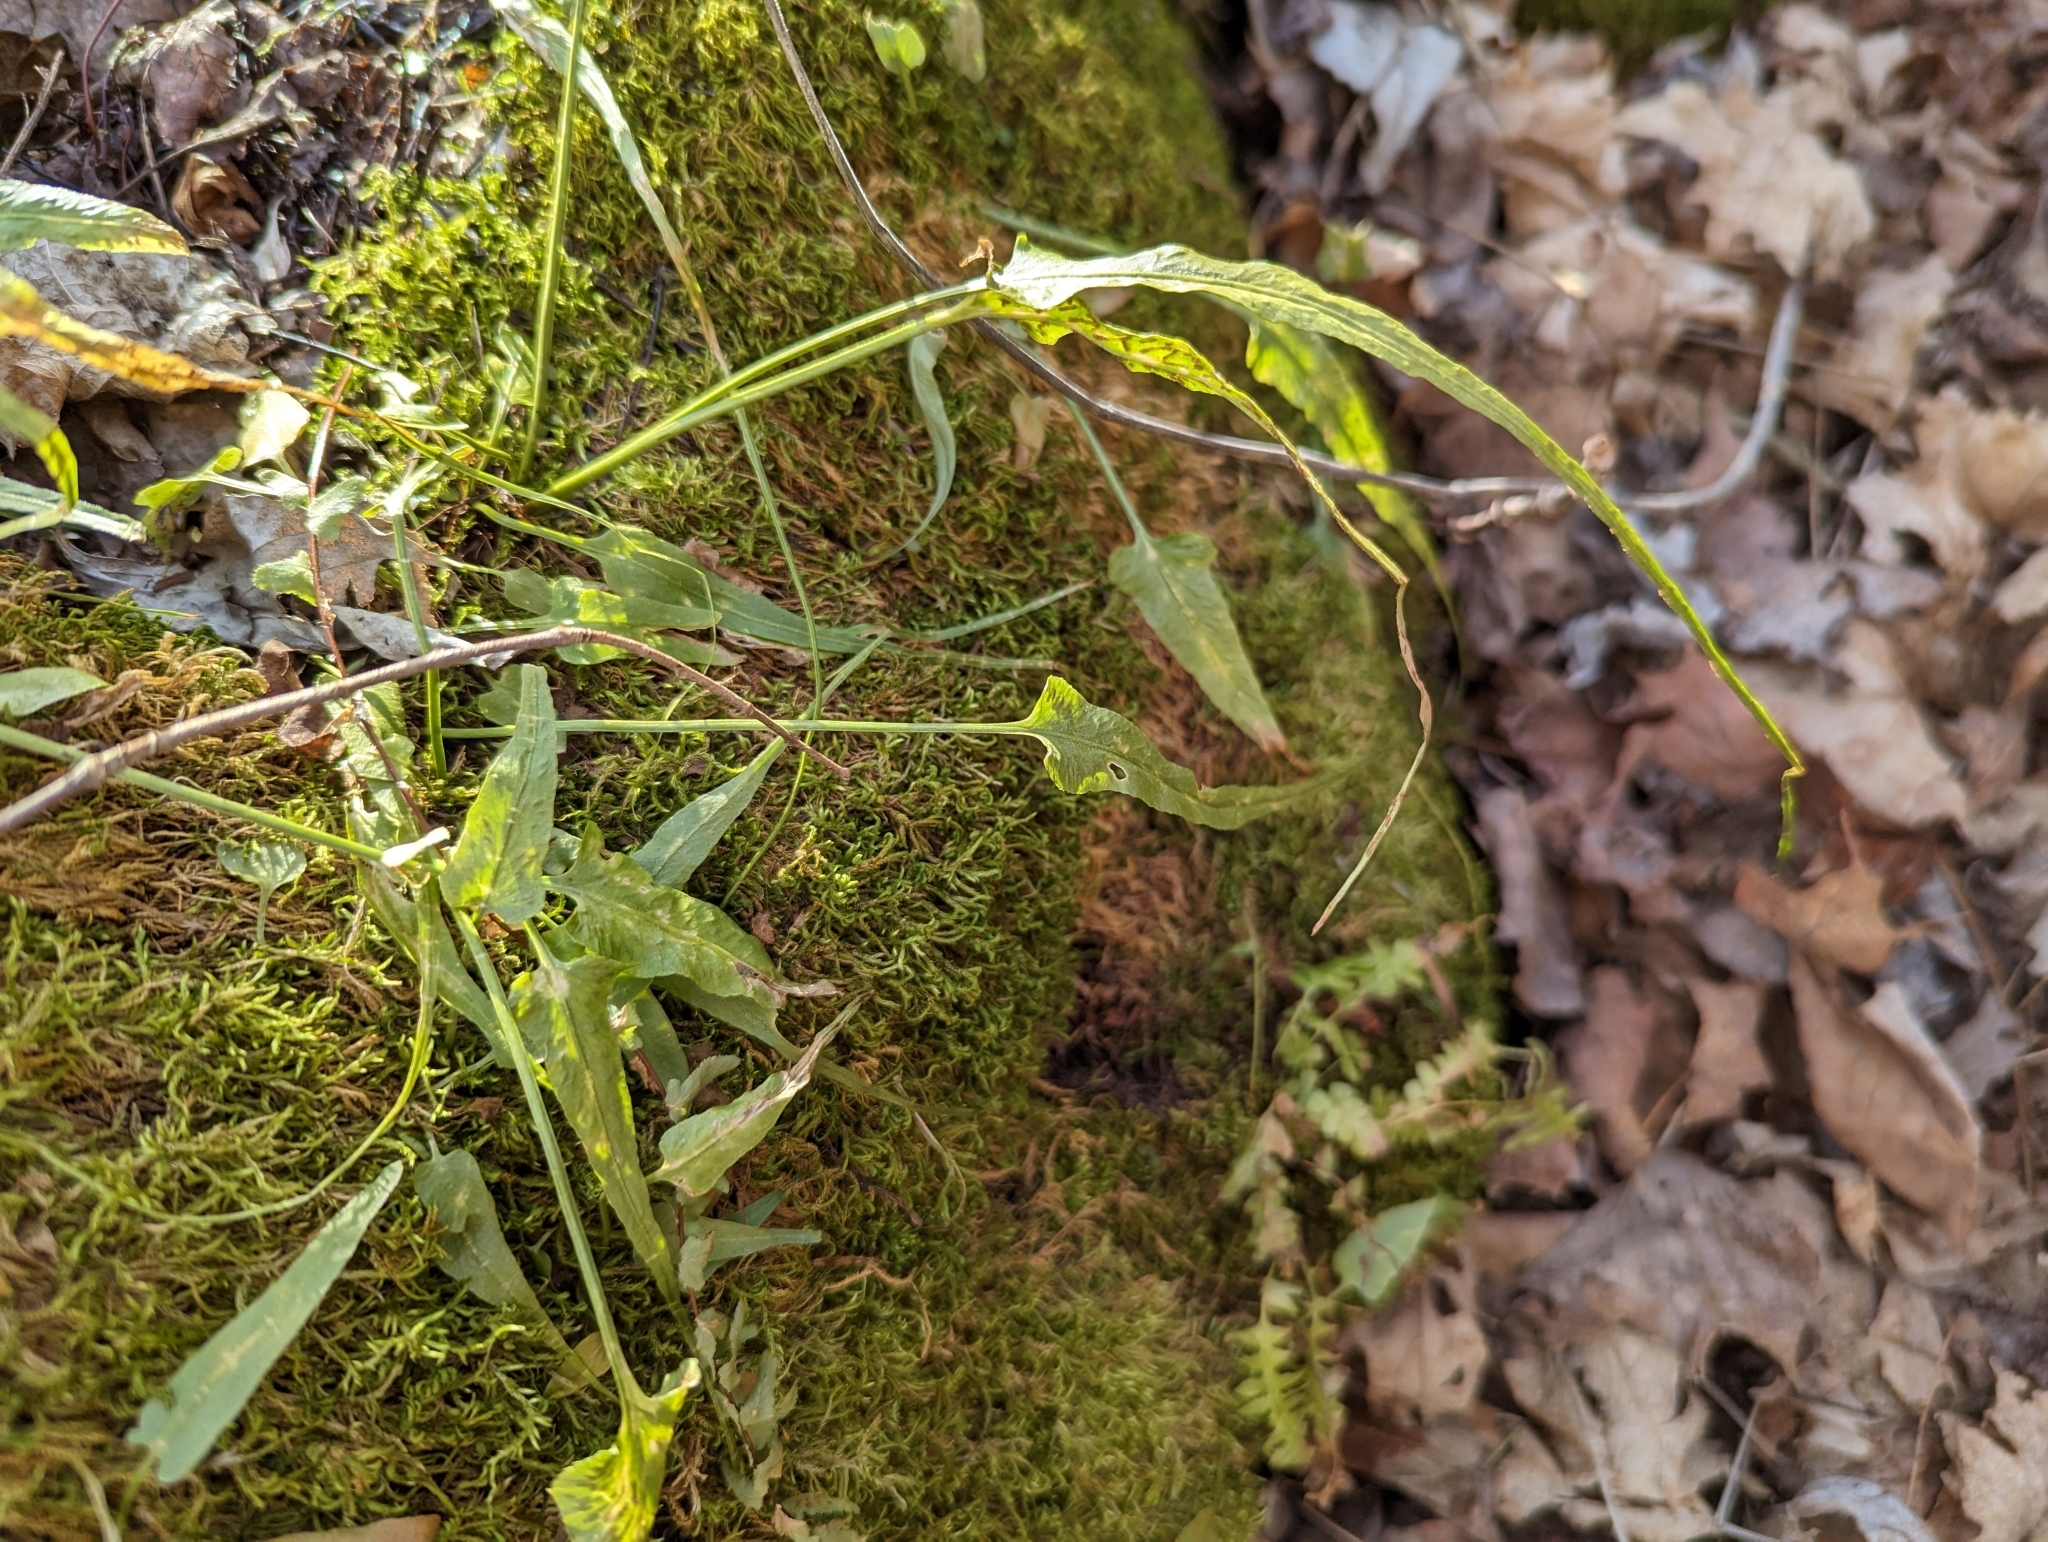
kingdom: Plantae
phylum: Tracheophyta
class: Polypodiopsida
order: Polypodiales
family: Aspleniaceae
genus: Asplenium
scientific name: Asplenium rhizophyllum
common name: Walking fern
